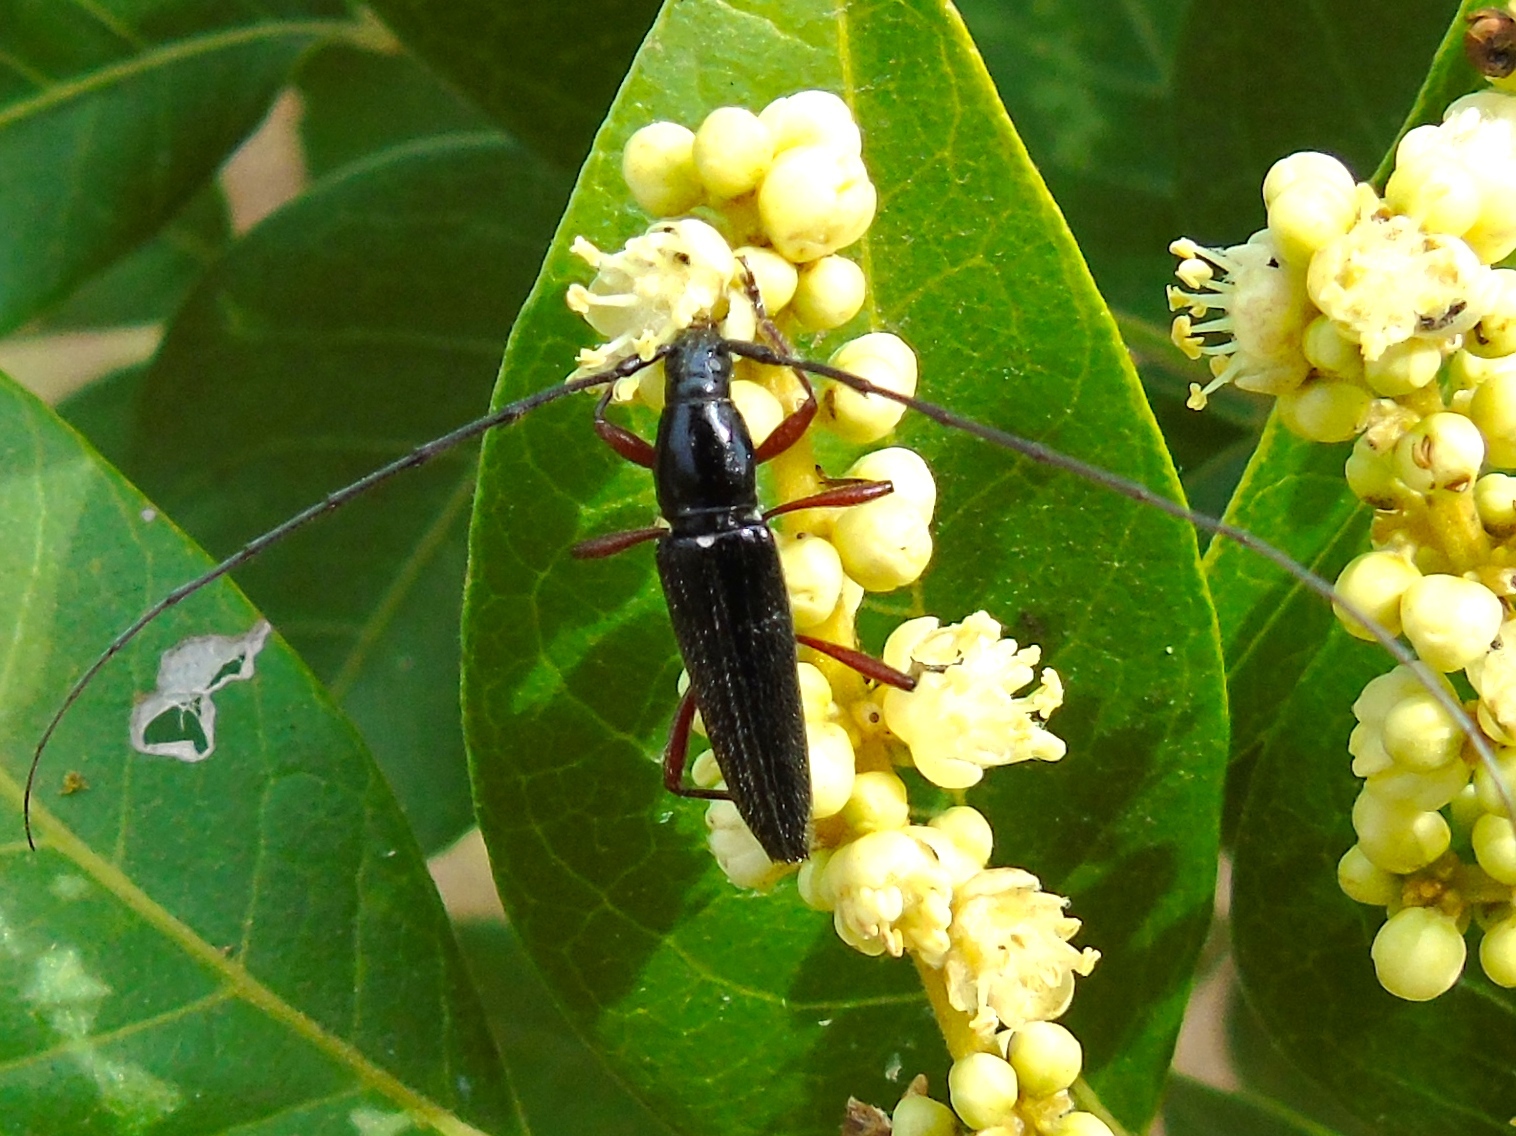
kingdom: Animalia
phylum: Arthropoda
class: Insecta
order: Coleoptera
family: Cerambycidae
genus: Stenosphenus
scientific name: Stenosphenus
